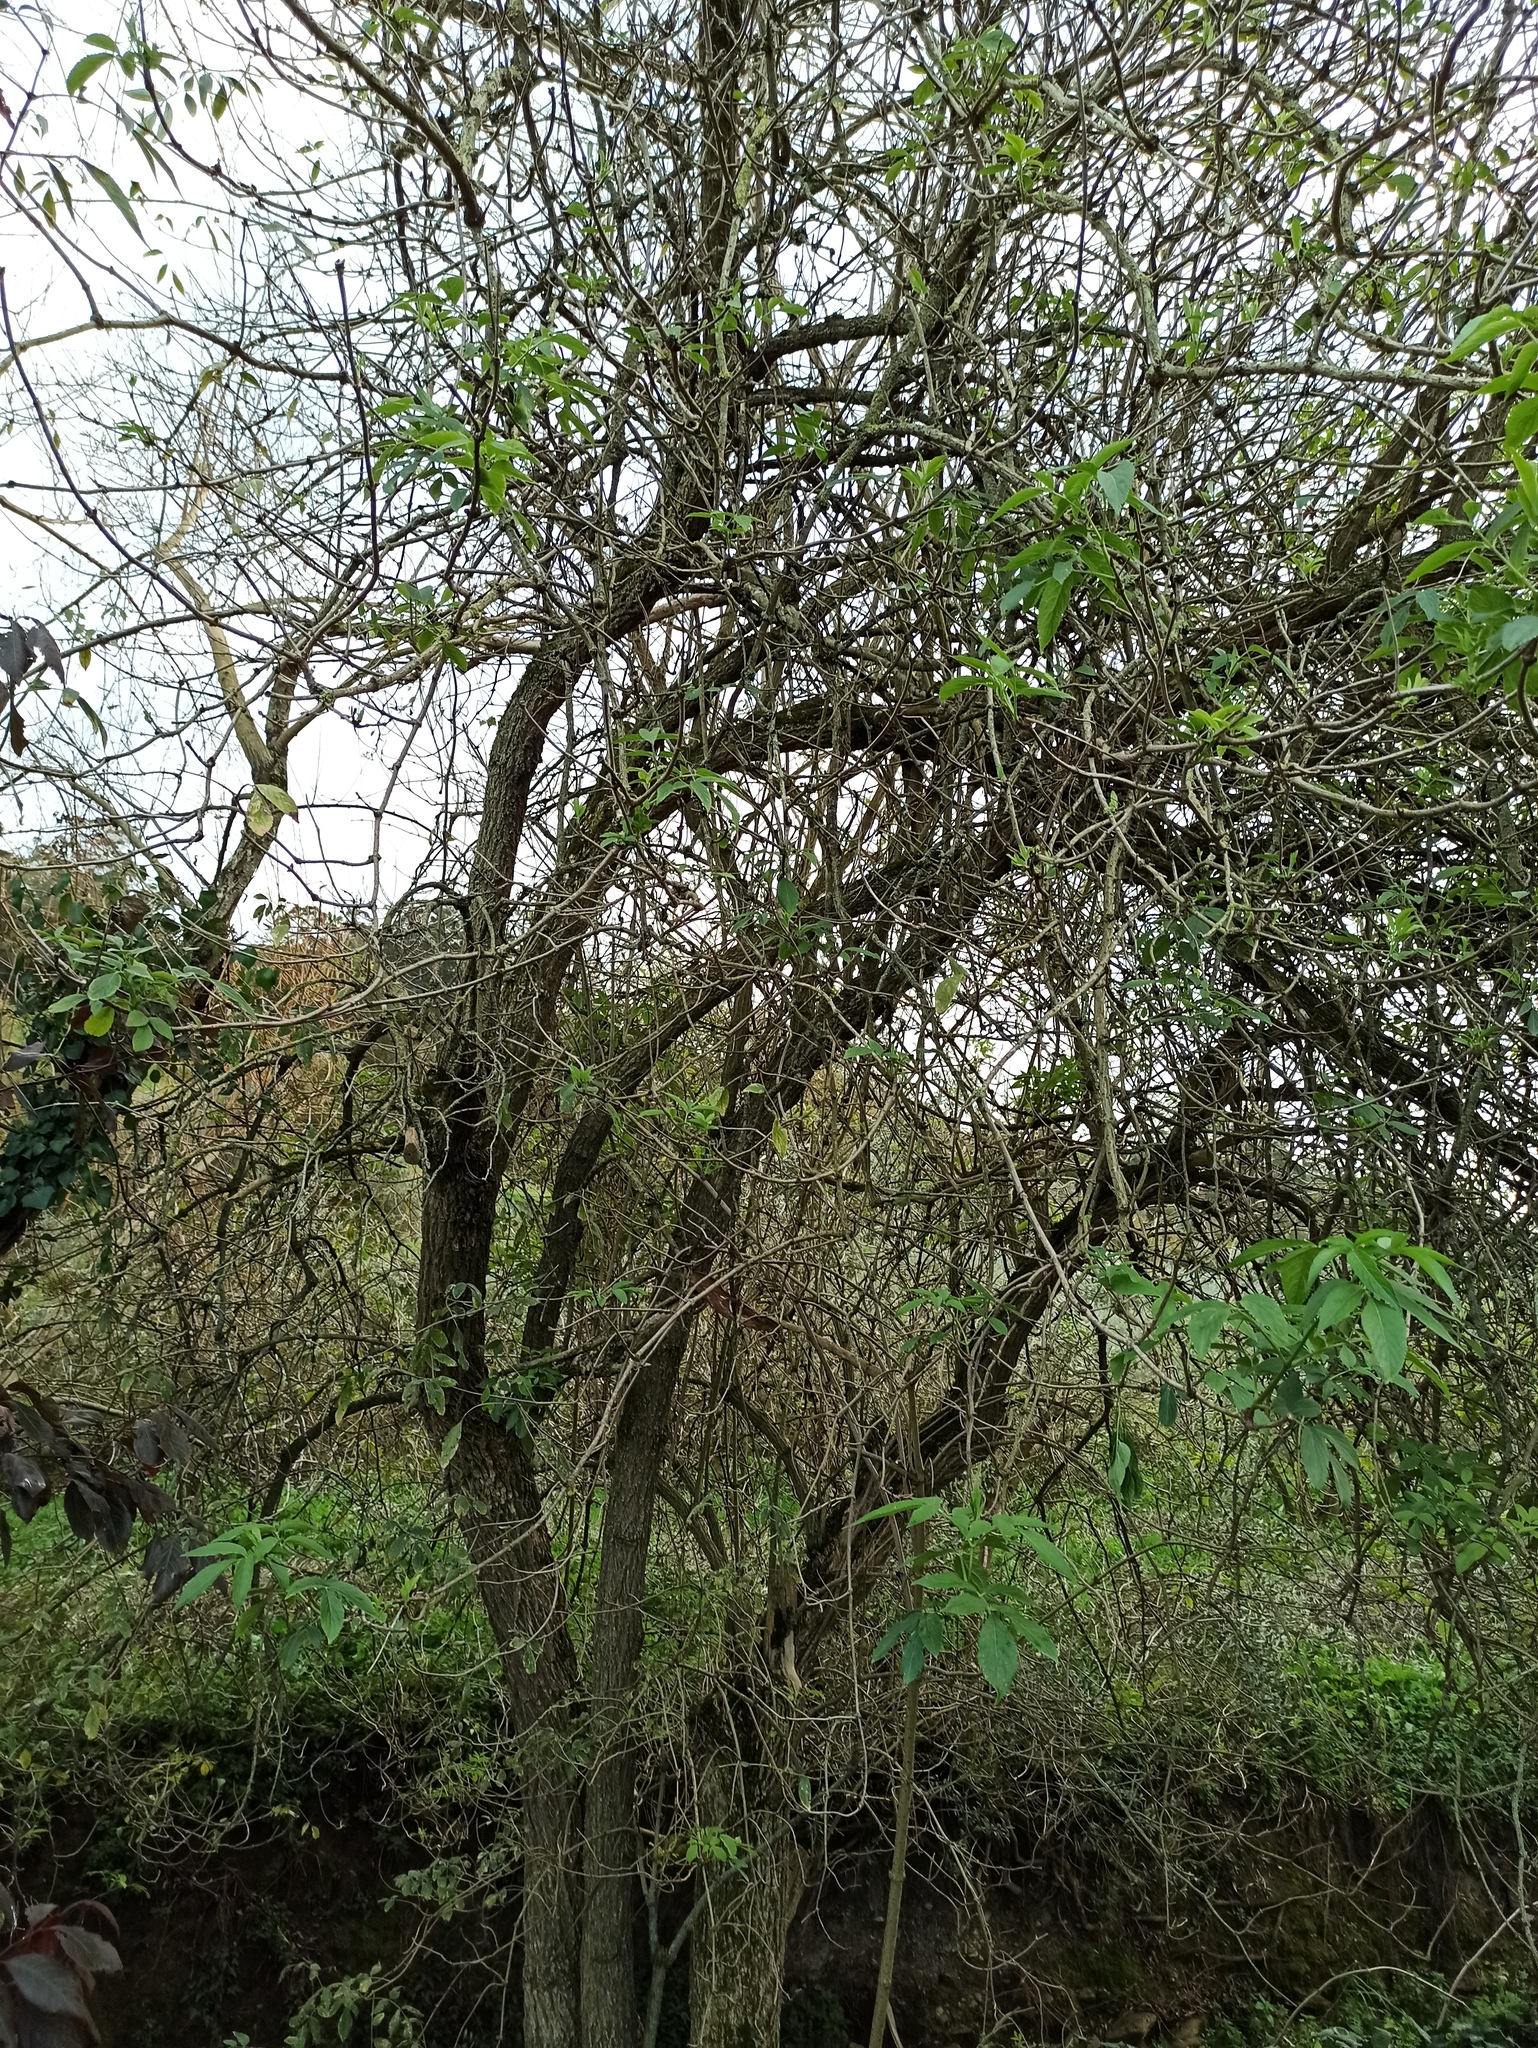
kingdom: Plantae
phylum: Tracheophyta
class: Magnoliopsida
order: Dipsacales
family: Viburnaceae
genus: Sambucus
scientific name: Sambucus nigra
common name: Elder
